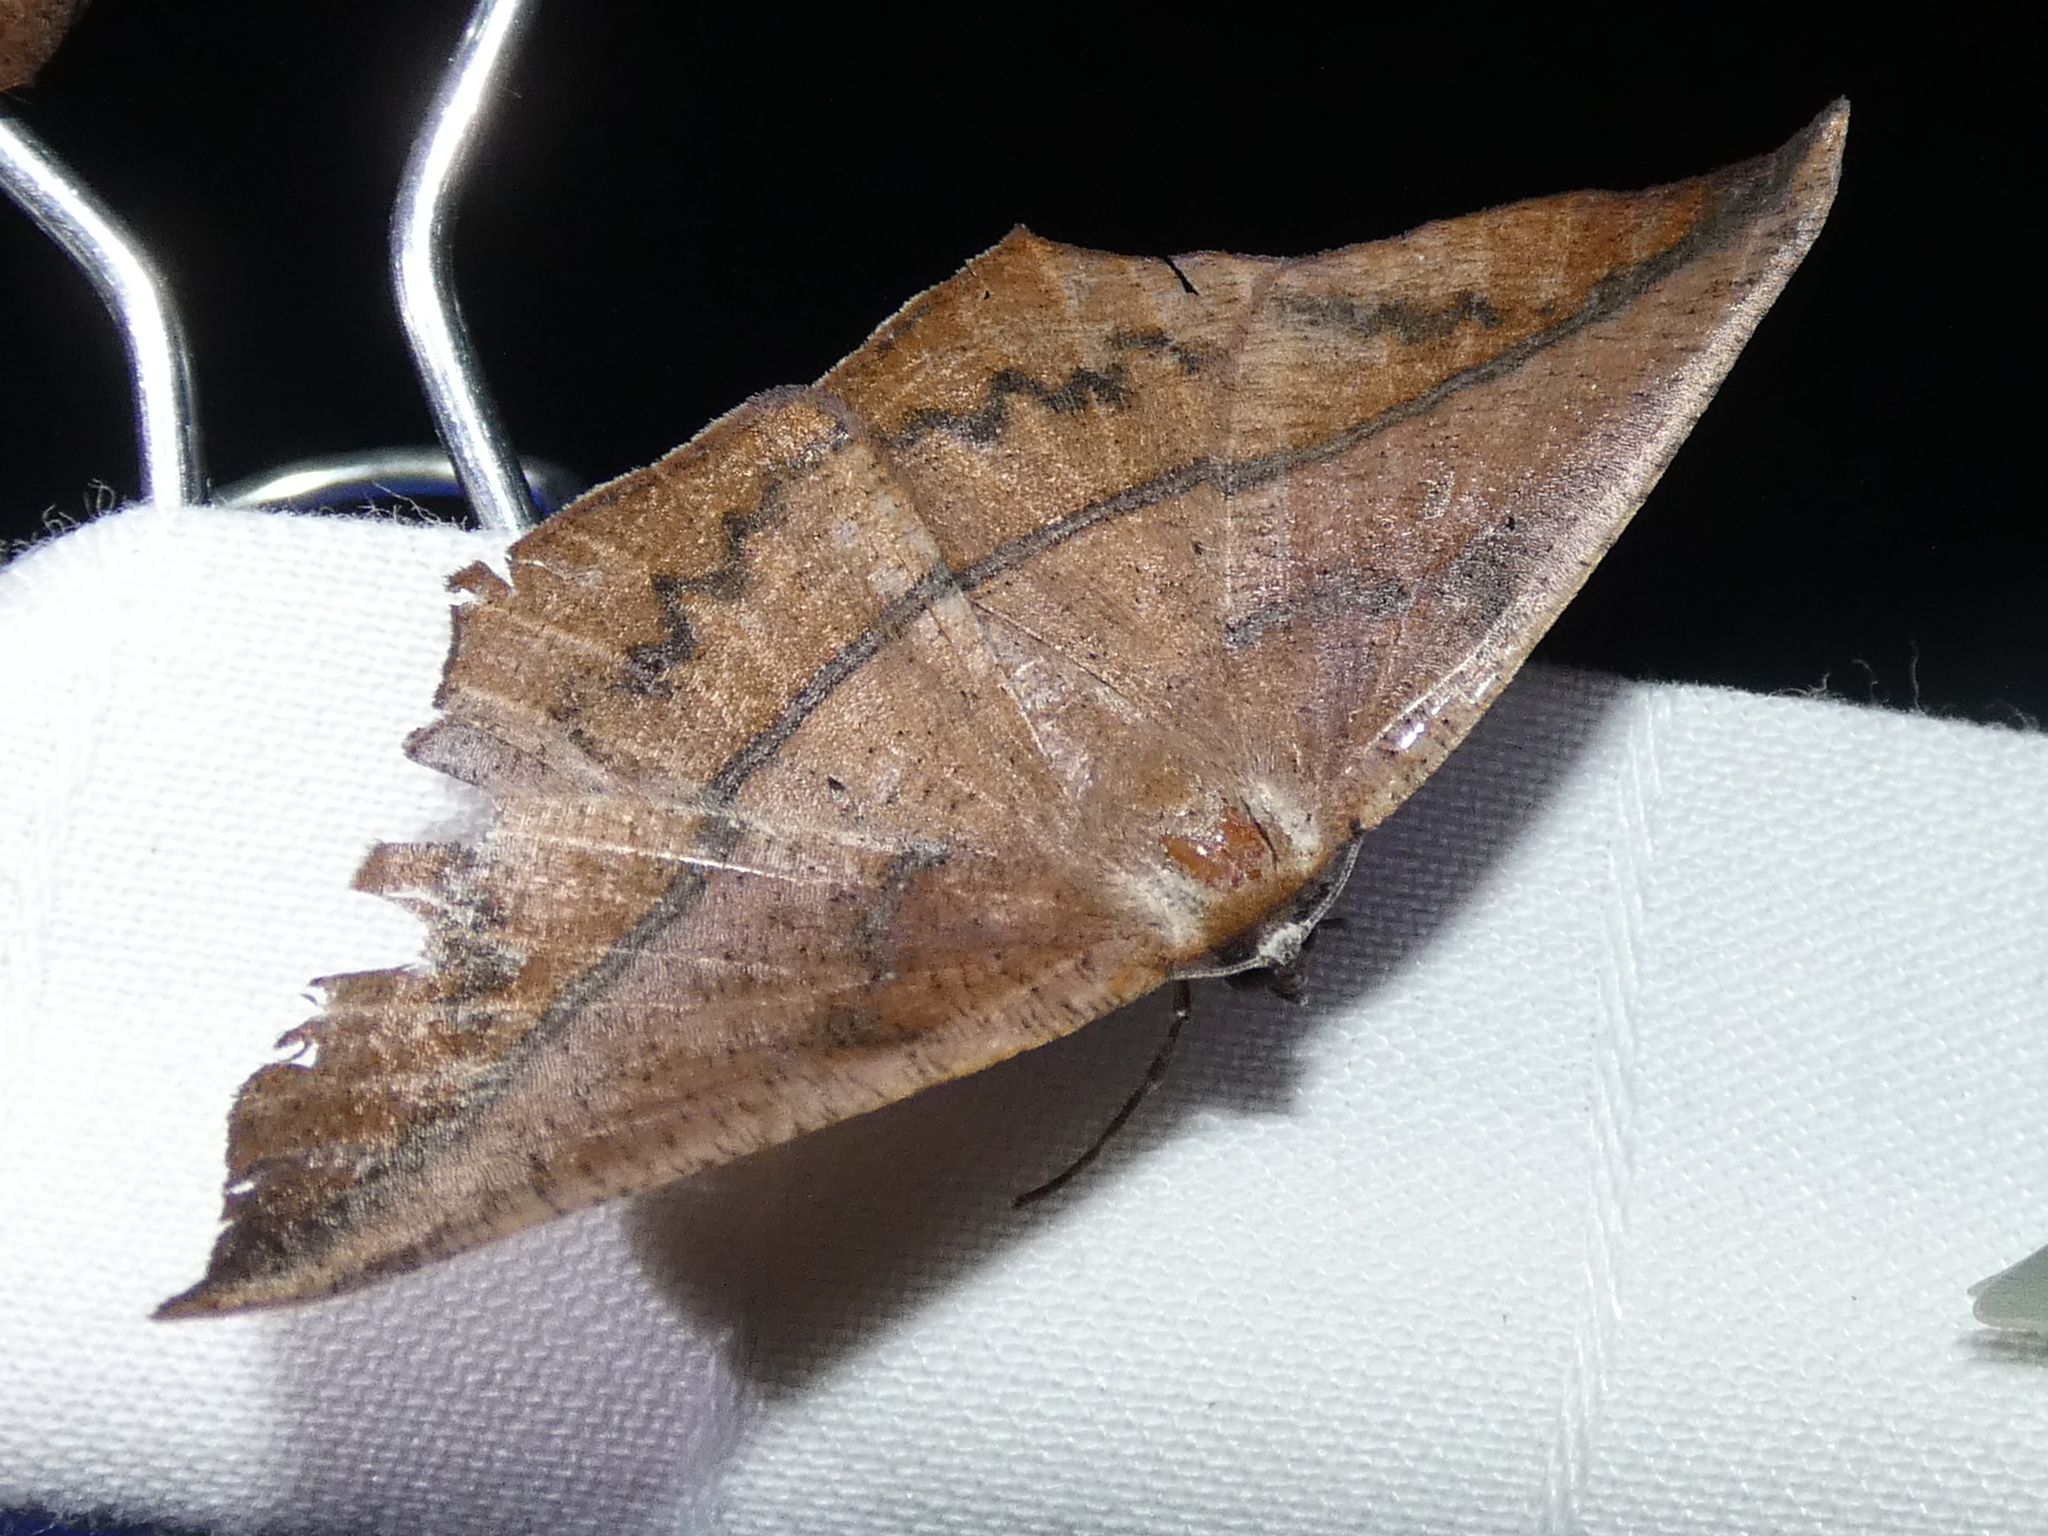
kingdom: Animalia
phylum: Arthropoda
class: Insecta
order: Lepidoptera
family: Geometridae
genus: Prochoerodes
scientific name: Prochoerodes lineola
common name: Large maple spanworm
